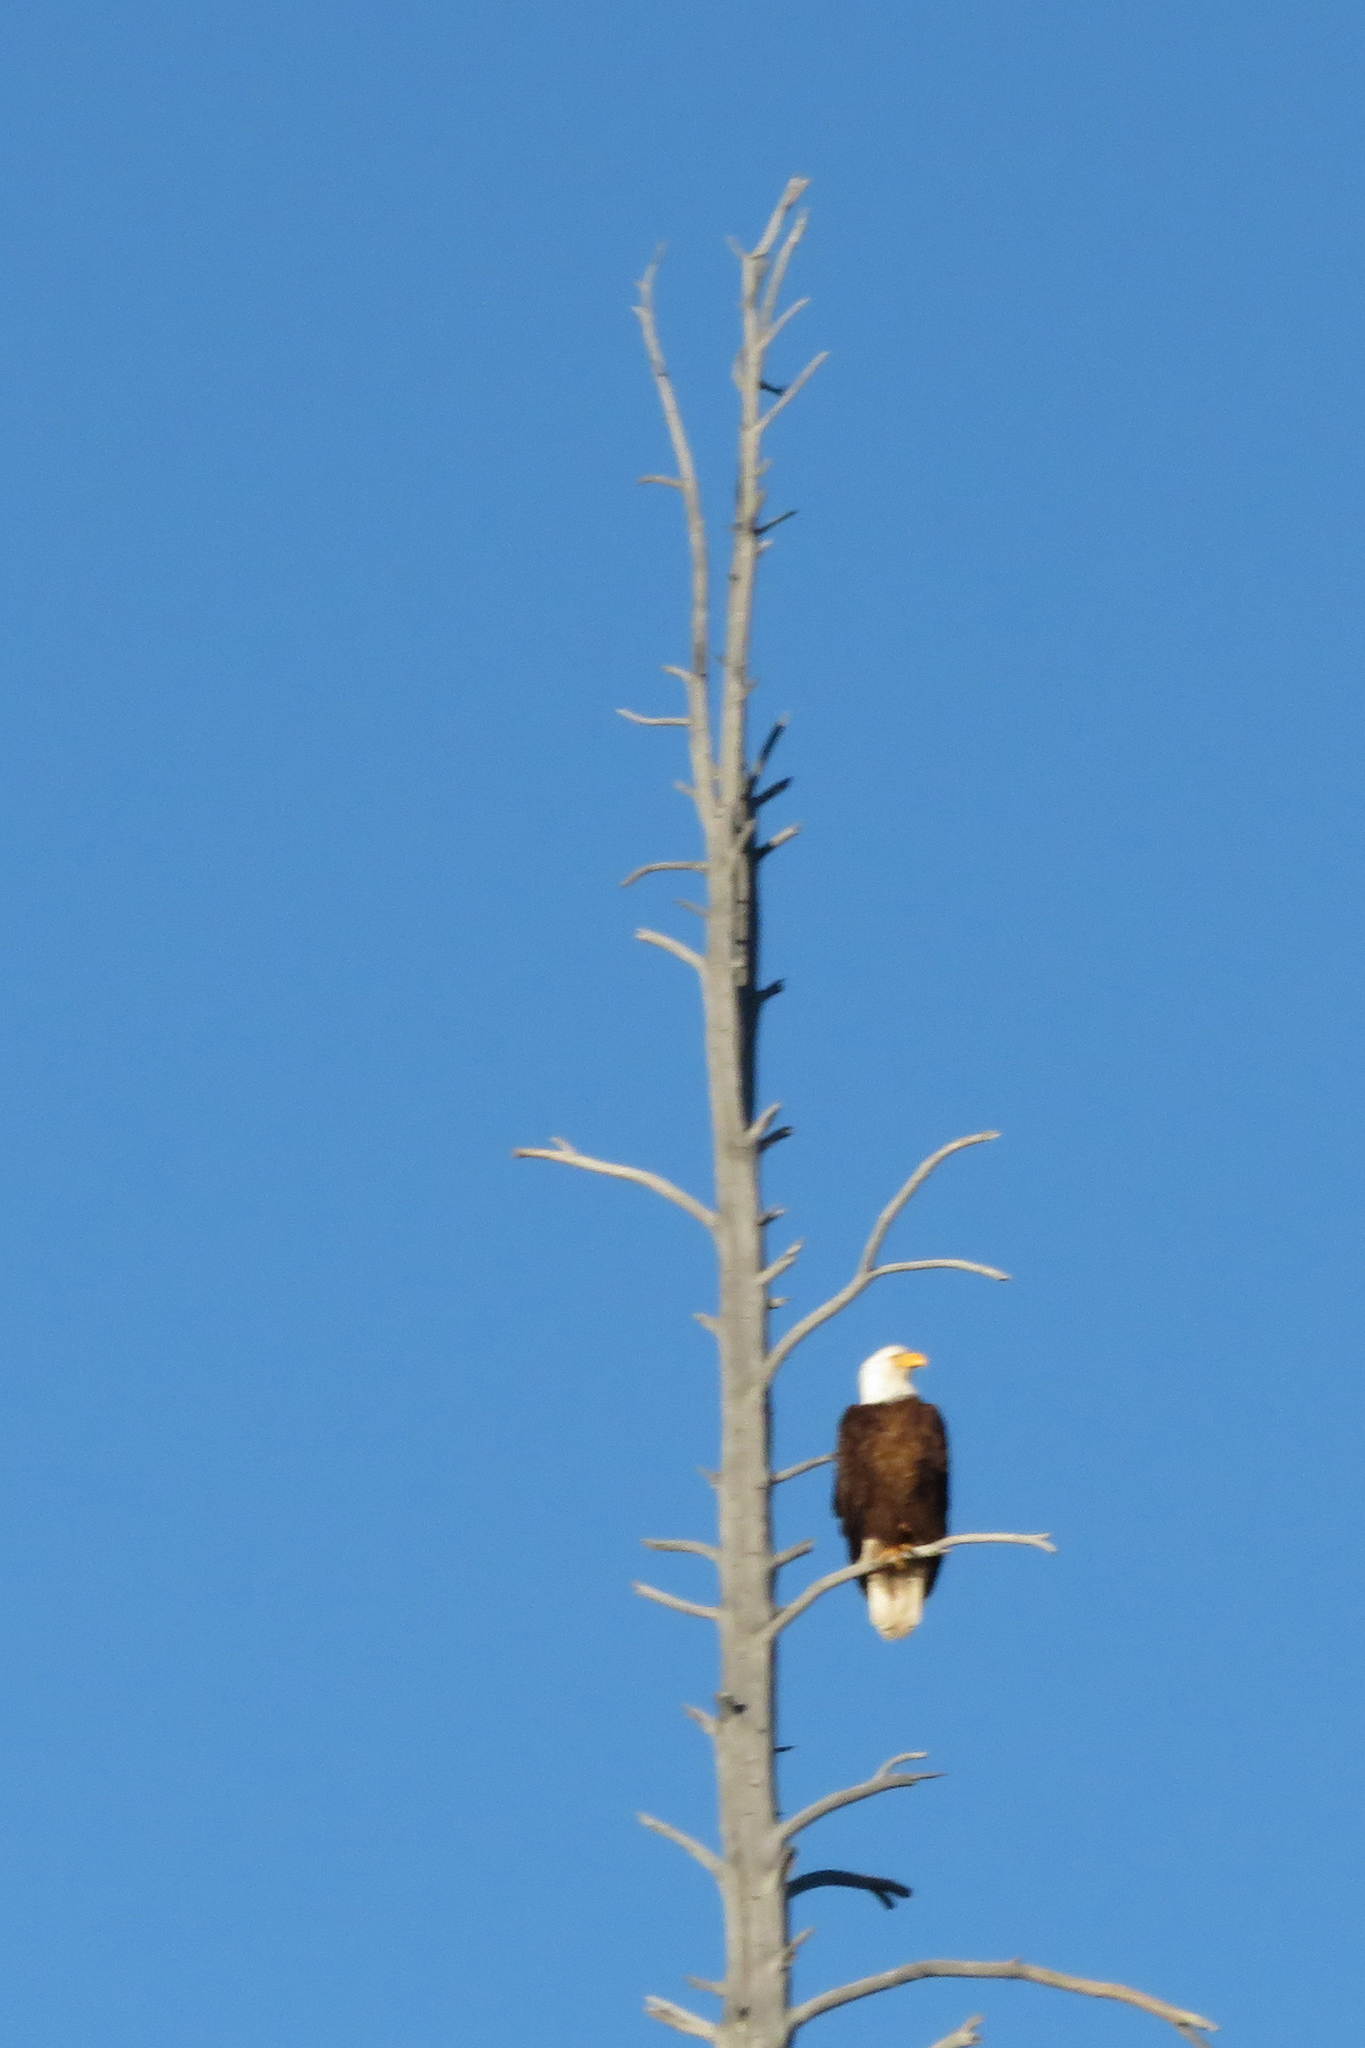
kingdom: Animalia
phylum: Chordata
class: Aves
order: Accipitriformes
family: Accipitridae
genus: Haliaeetus
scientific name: Haliaeetus leucocephalus
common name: Bald eagle
